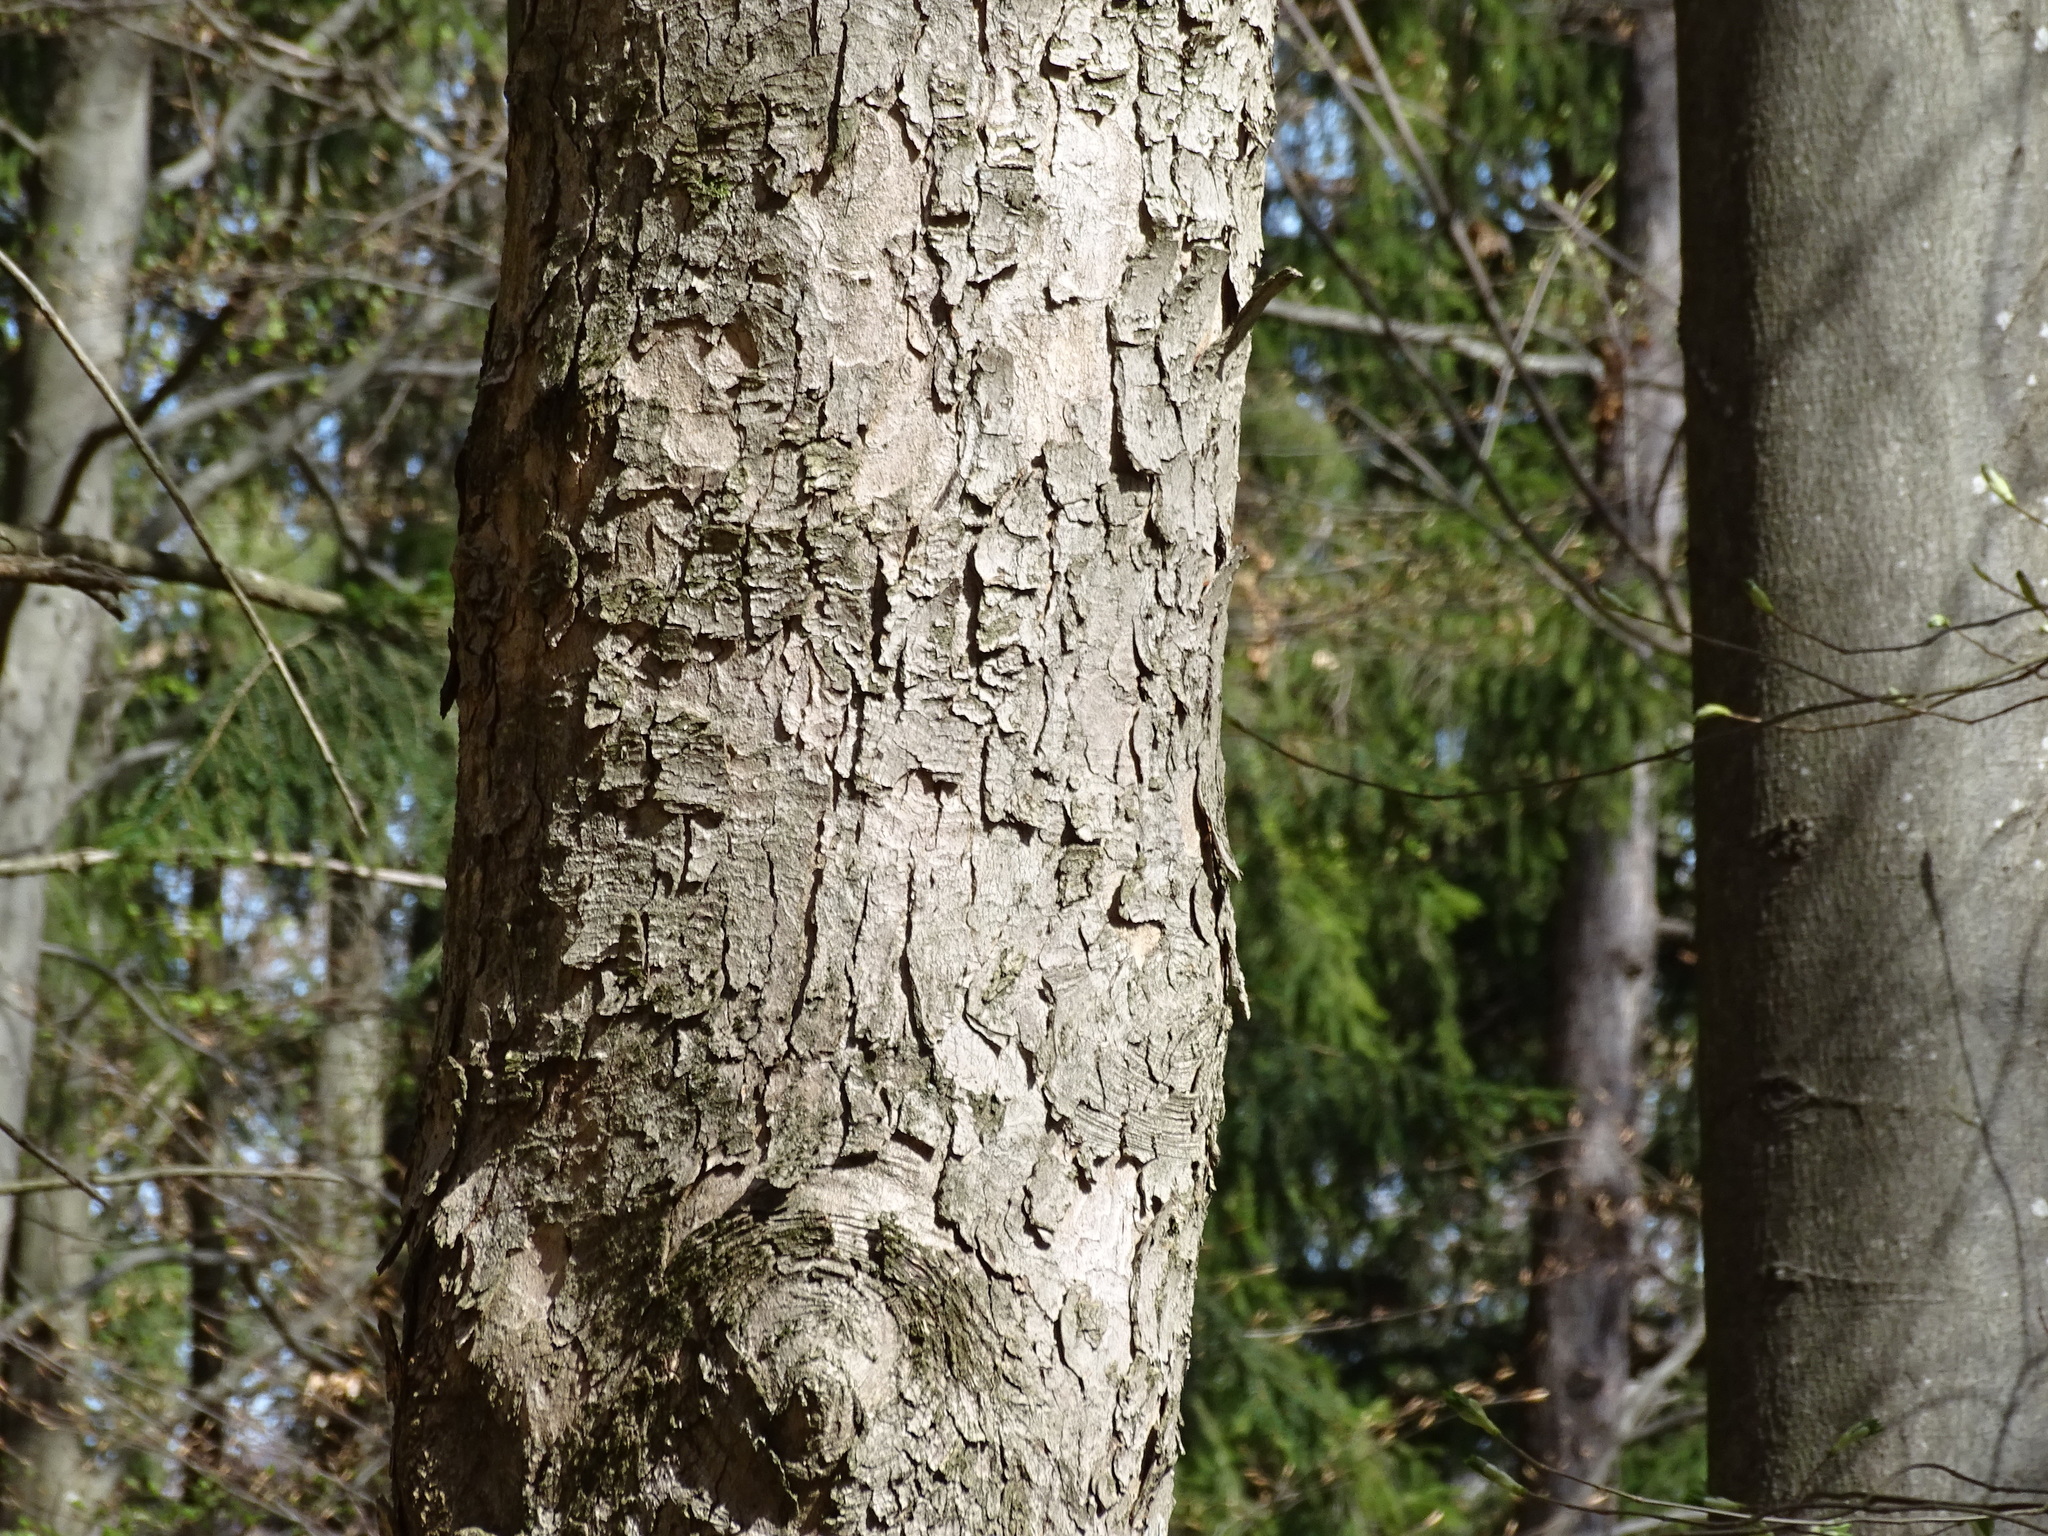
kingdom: Plantae
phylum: Tracheophyta
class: Magnoliopsida
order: Sapindales
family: Sapindaceae
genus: Acer
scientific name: Acer pseudoplatanus
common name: Sycamore
